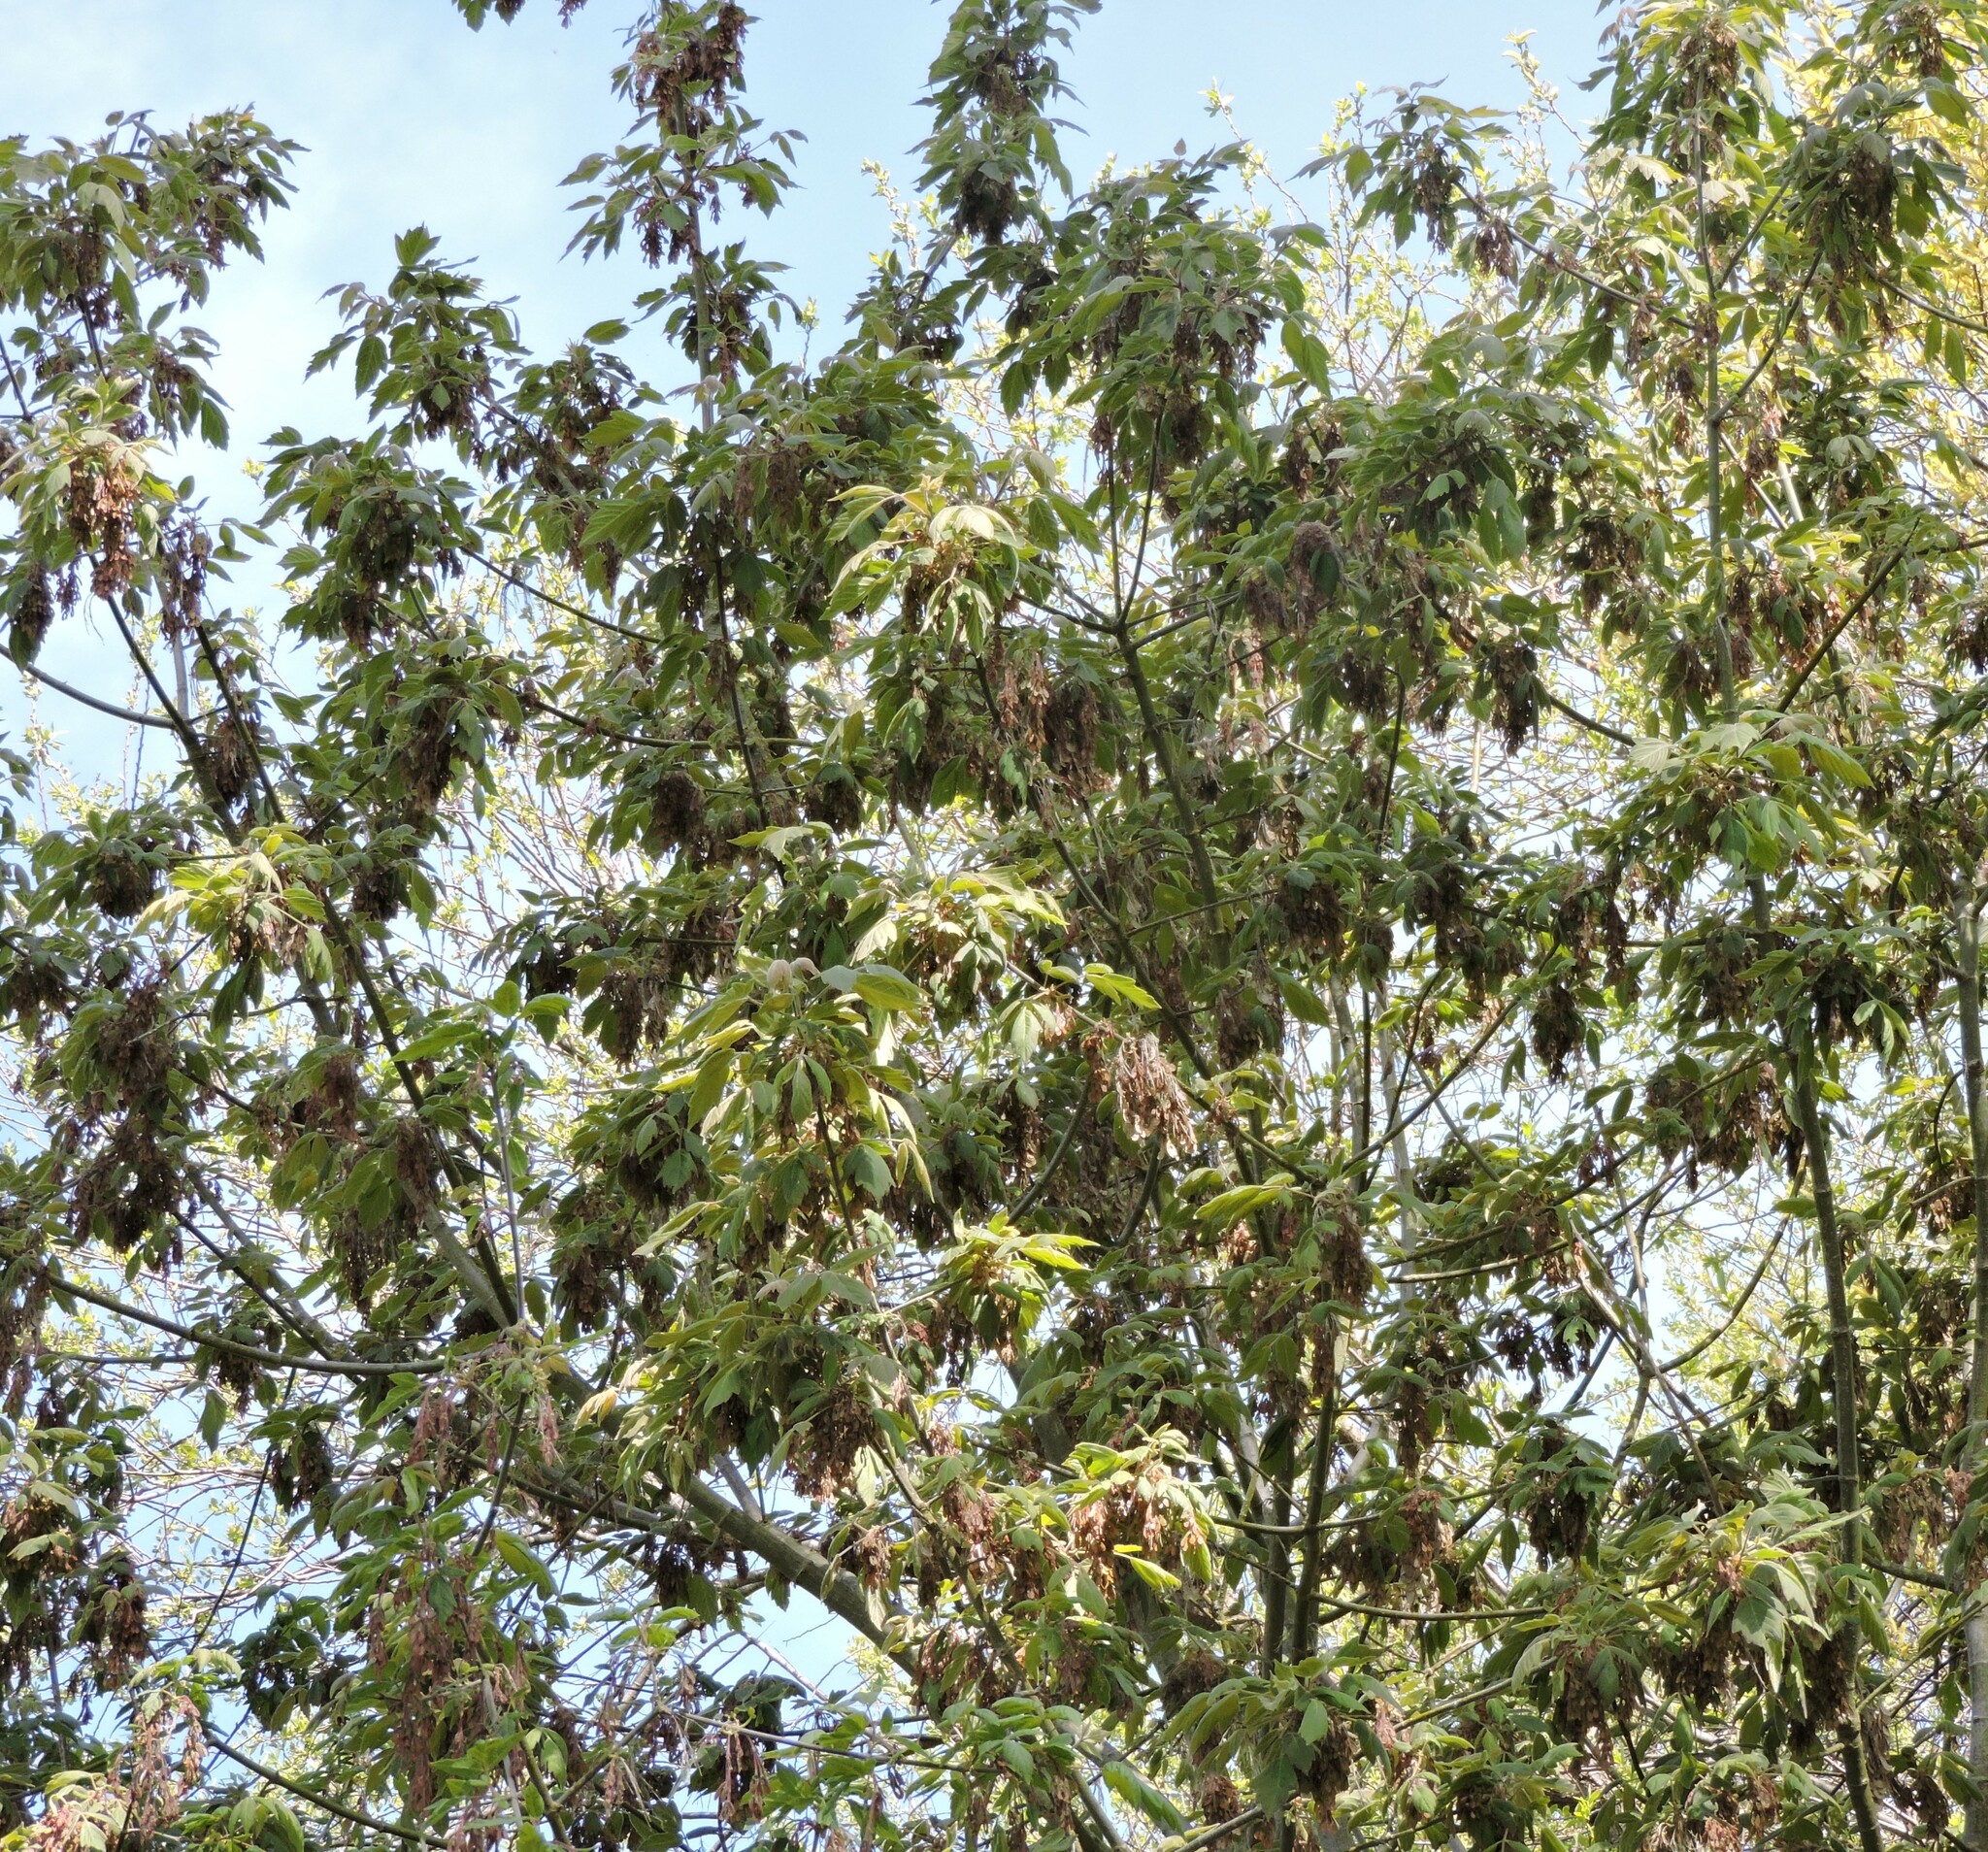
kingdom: Plantae
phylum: Tracheophyta
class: Magnoliopsida
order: Sapindales
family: Sapindaceae
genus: Acer
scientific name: Acer negundo
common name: Ashleaf maple
